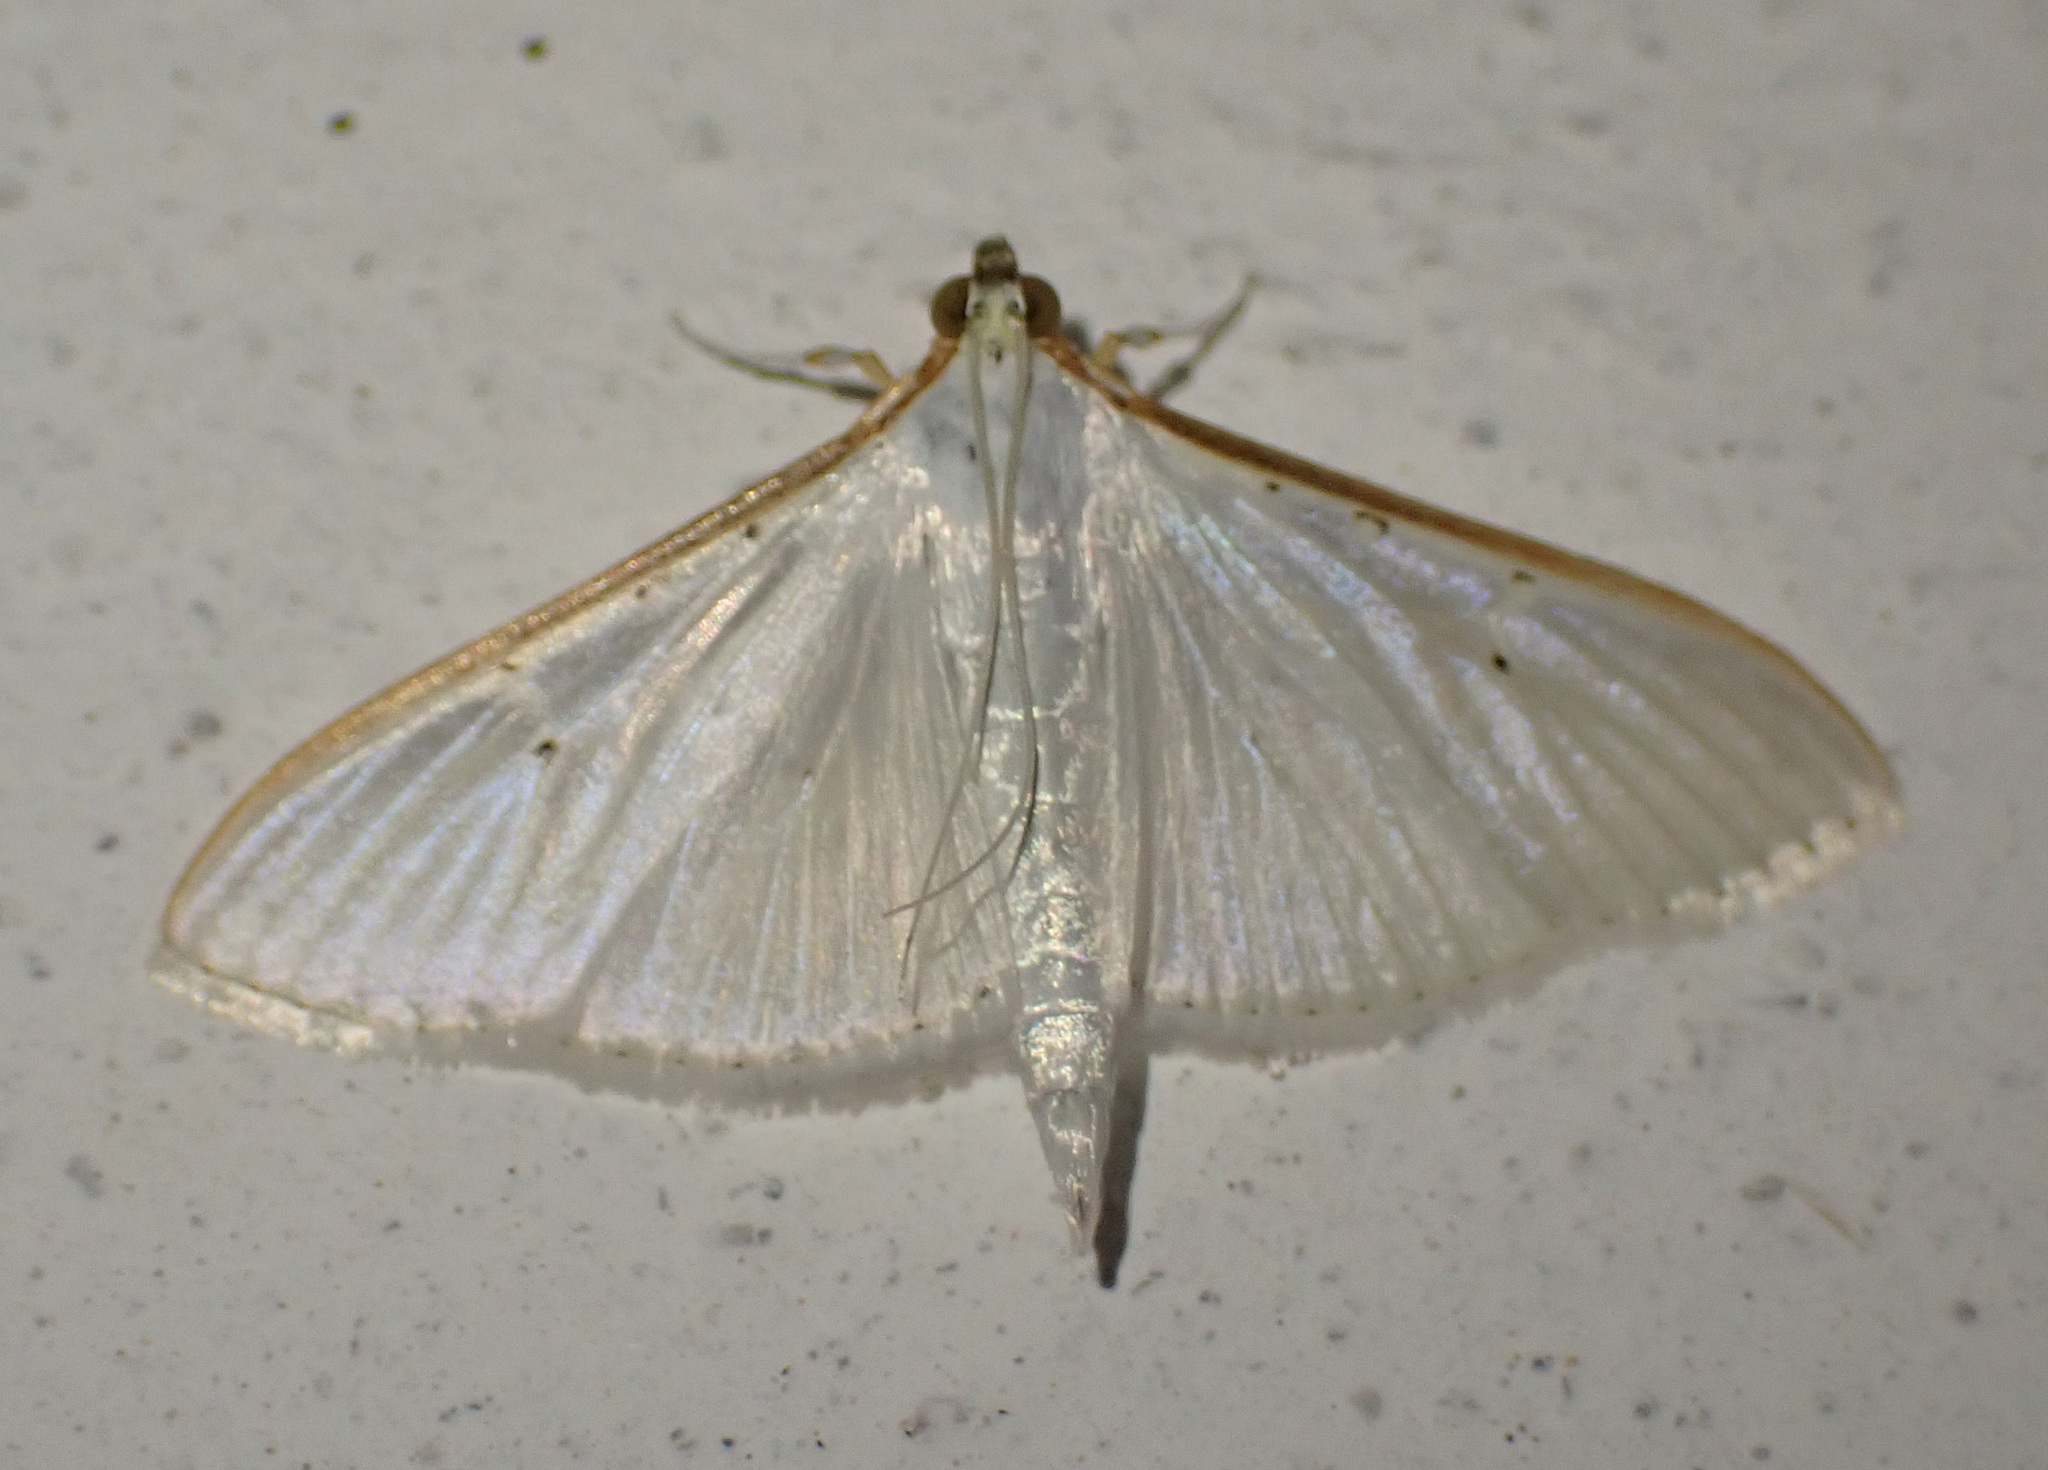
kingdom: Animalia
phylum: Arthropoda
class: Insecta
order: Lepidoptera
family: Crambidae
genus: Palpita
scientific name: Palpita vitrealis
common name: Olive-tree pearl
